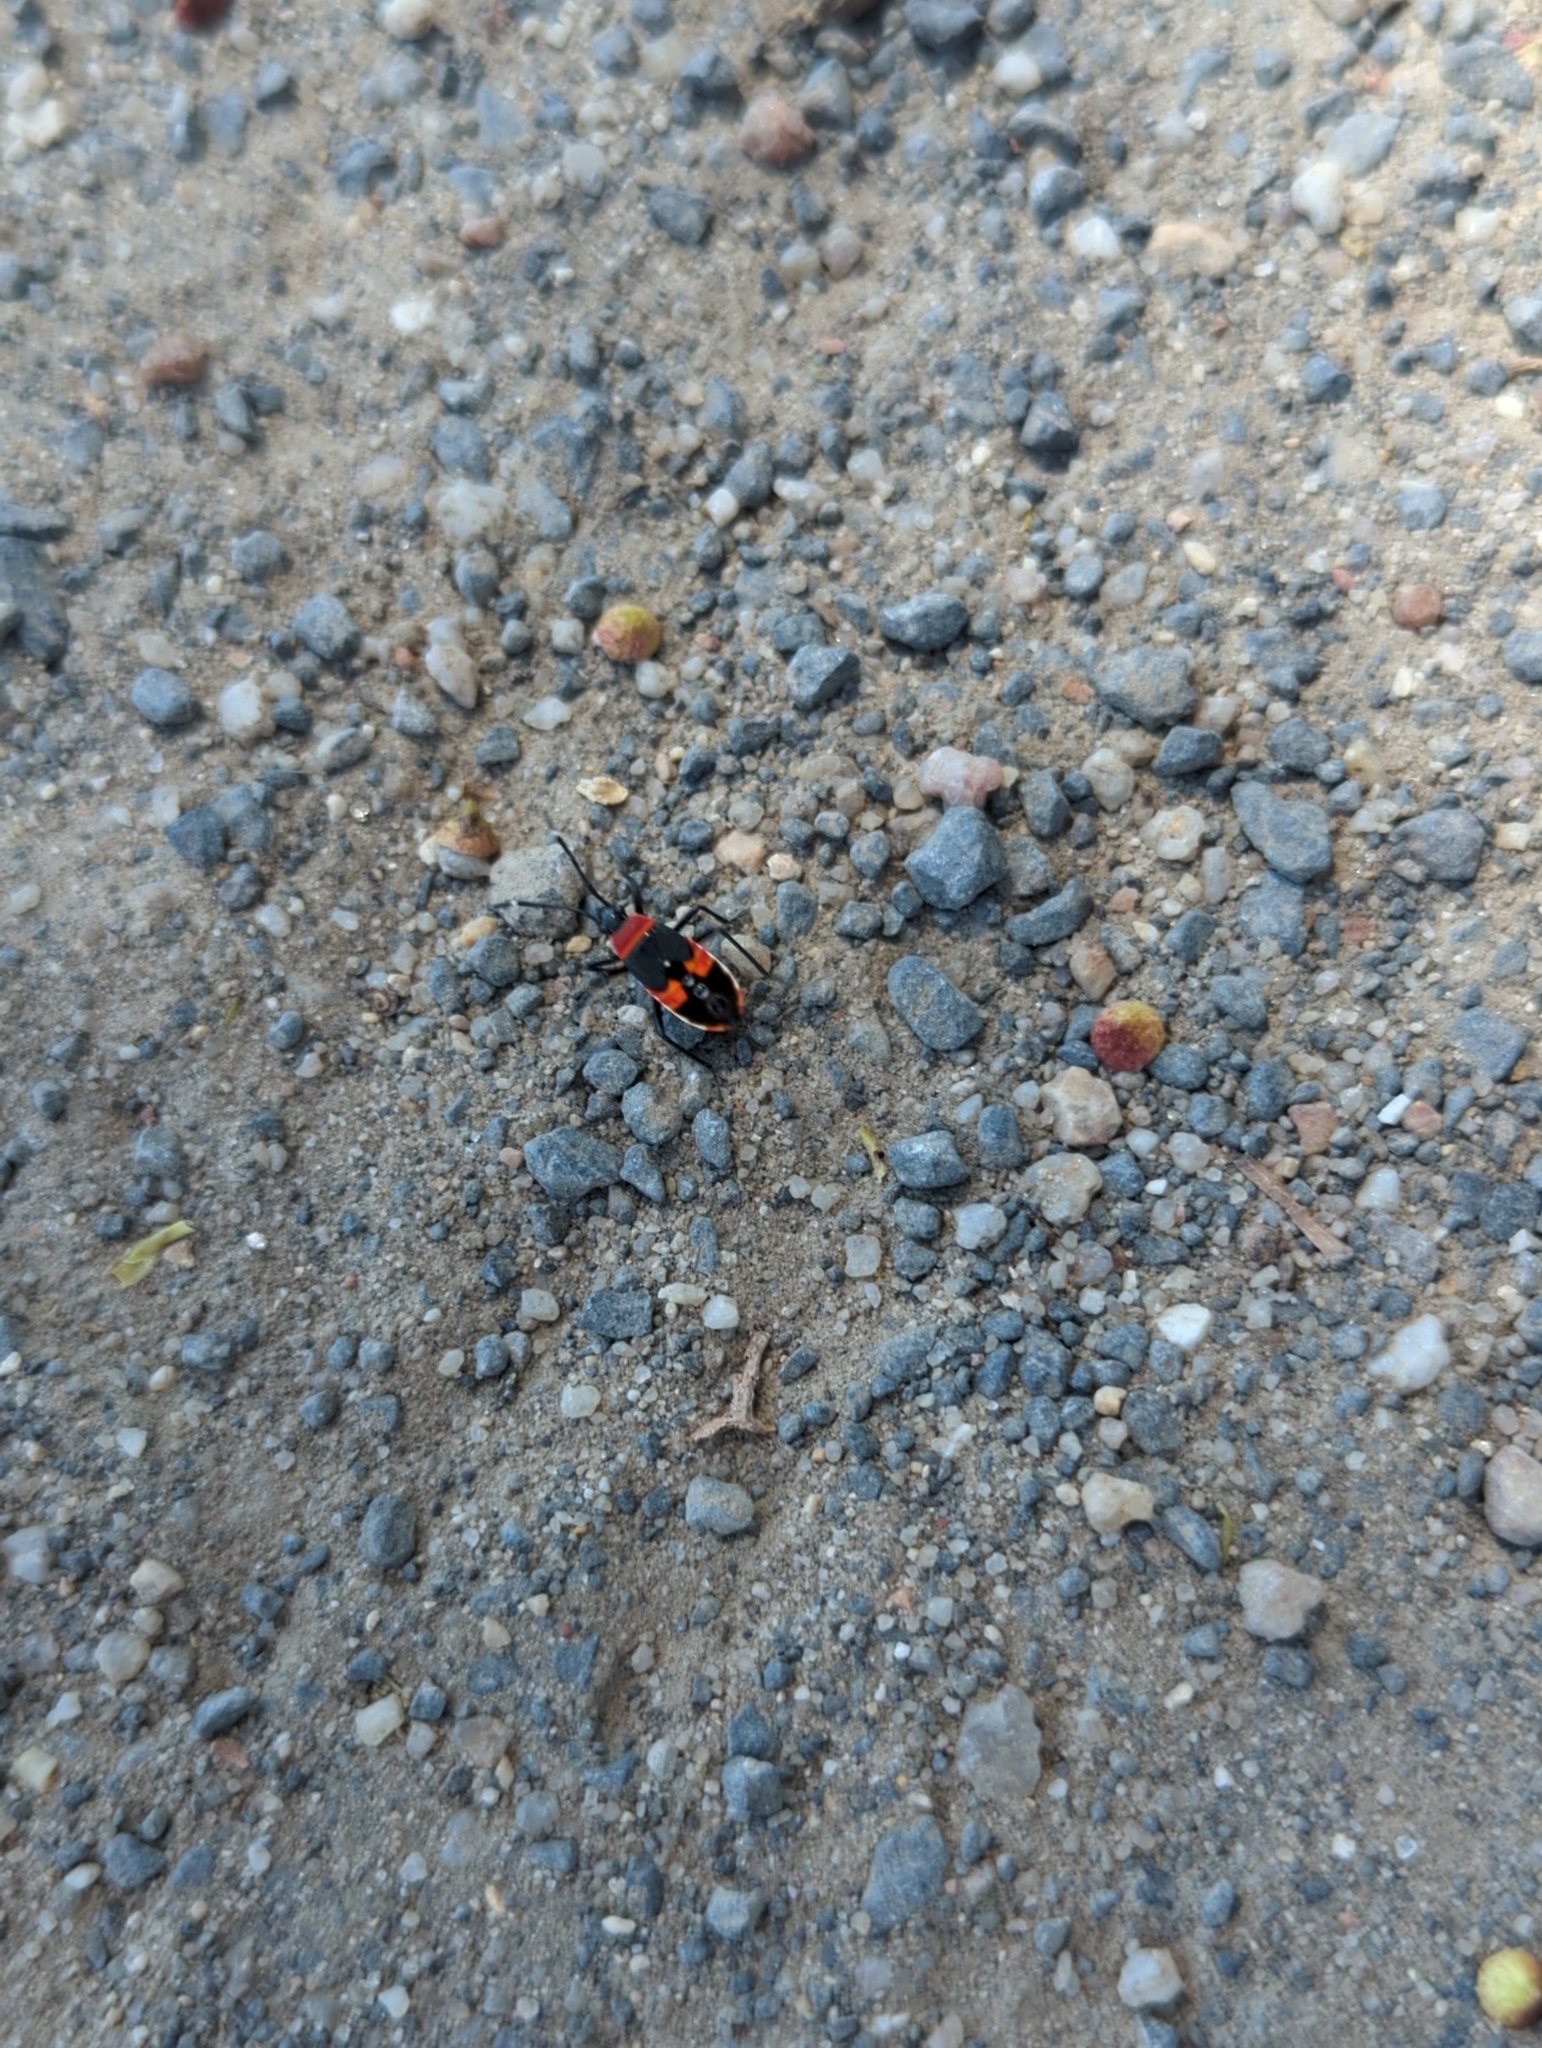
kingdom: Animalia
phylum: Arthropoda
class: Insecta
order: Hemiptera
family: Pyrrhocoridae
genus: Dindymus
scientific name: Dindymus
